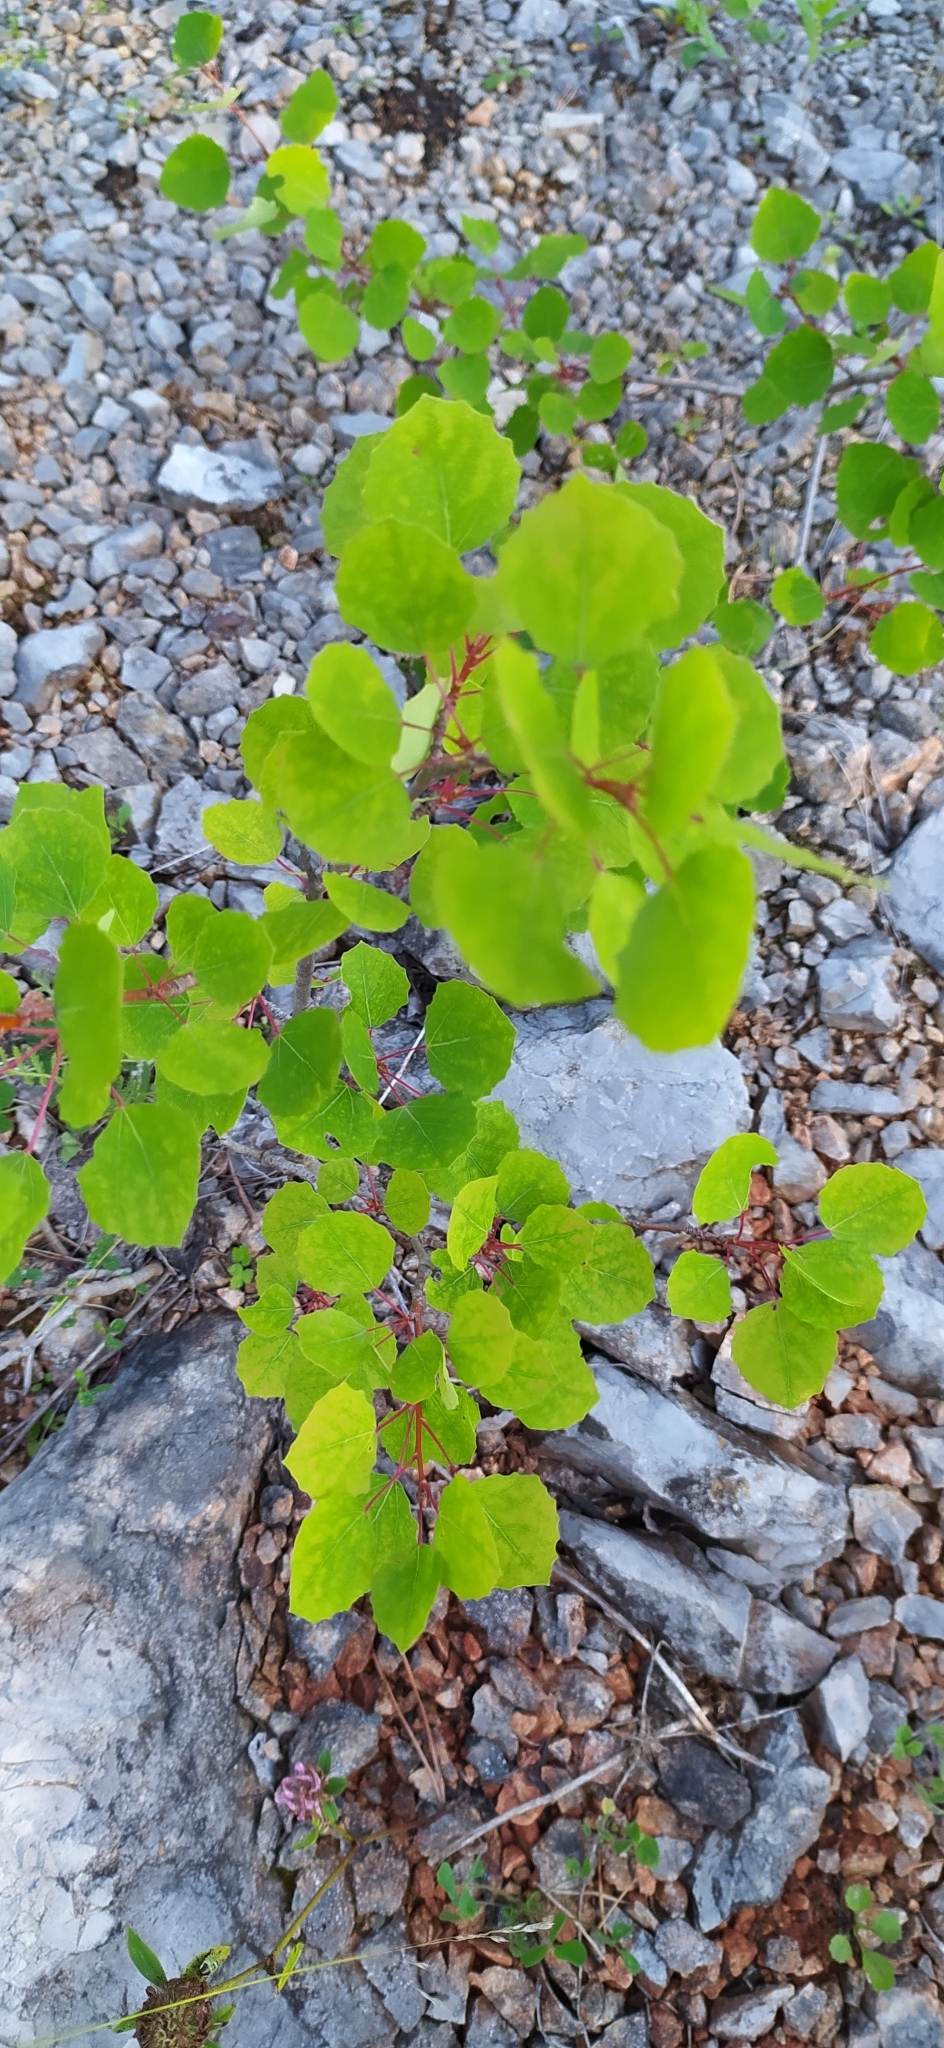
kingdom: Plantae
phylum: Tracheophyta
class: Magnoliopsida
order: Malpighiales
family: Salicaceae
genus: Populus
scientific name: Populus tremula
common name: European aspen
